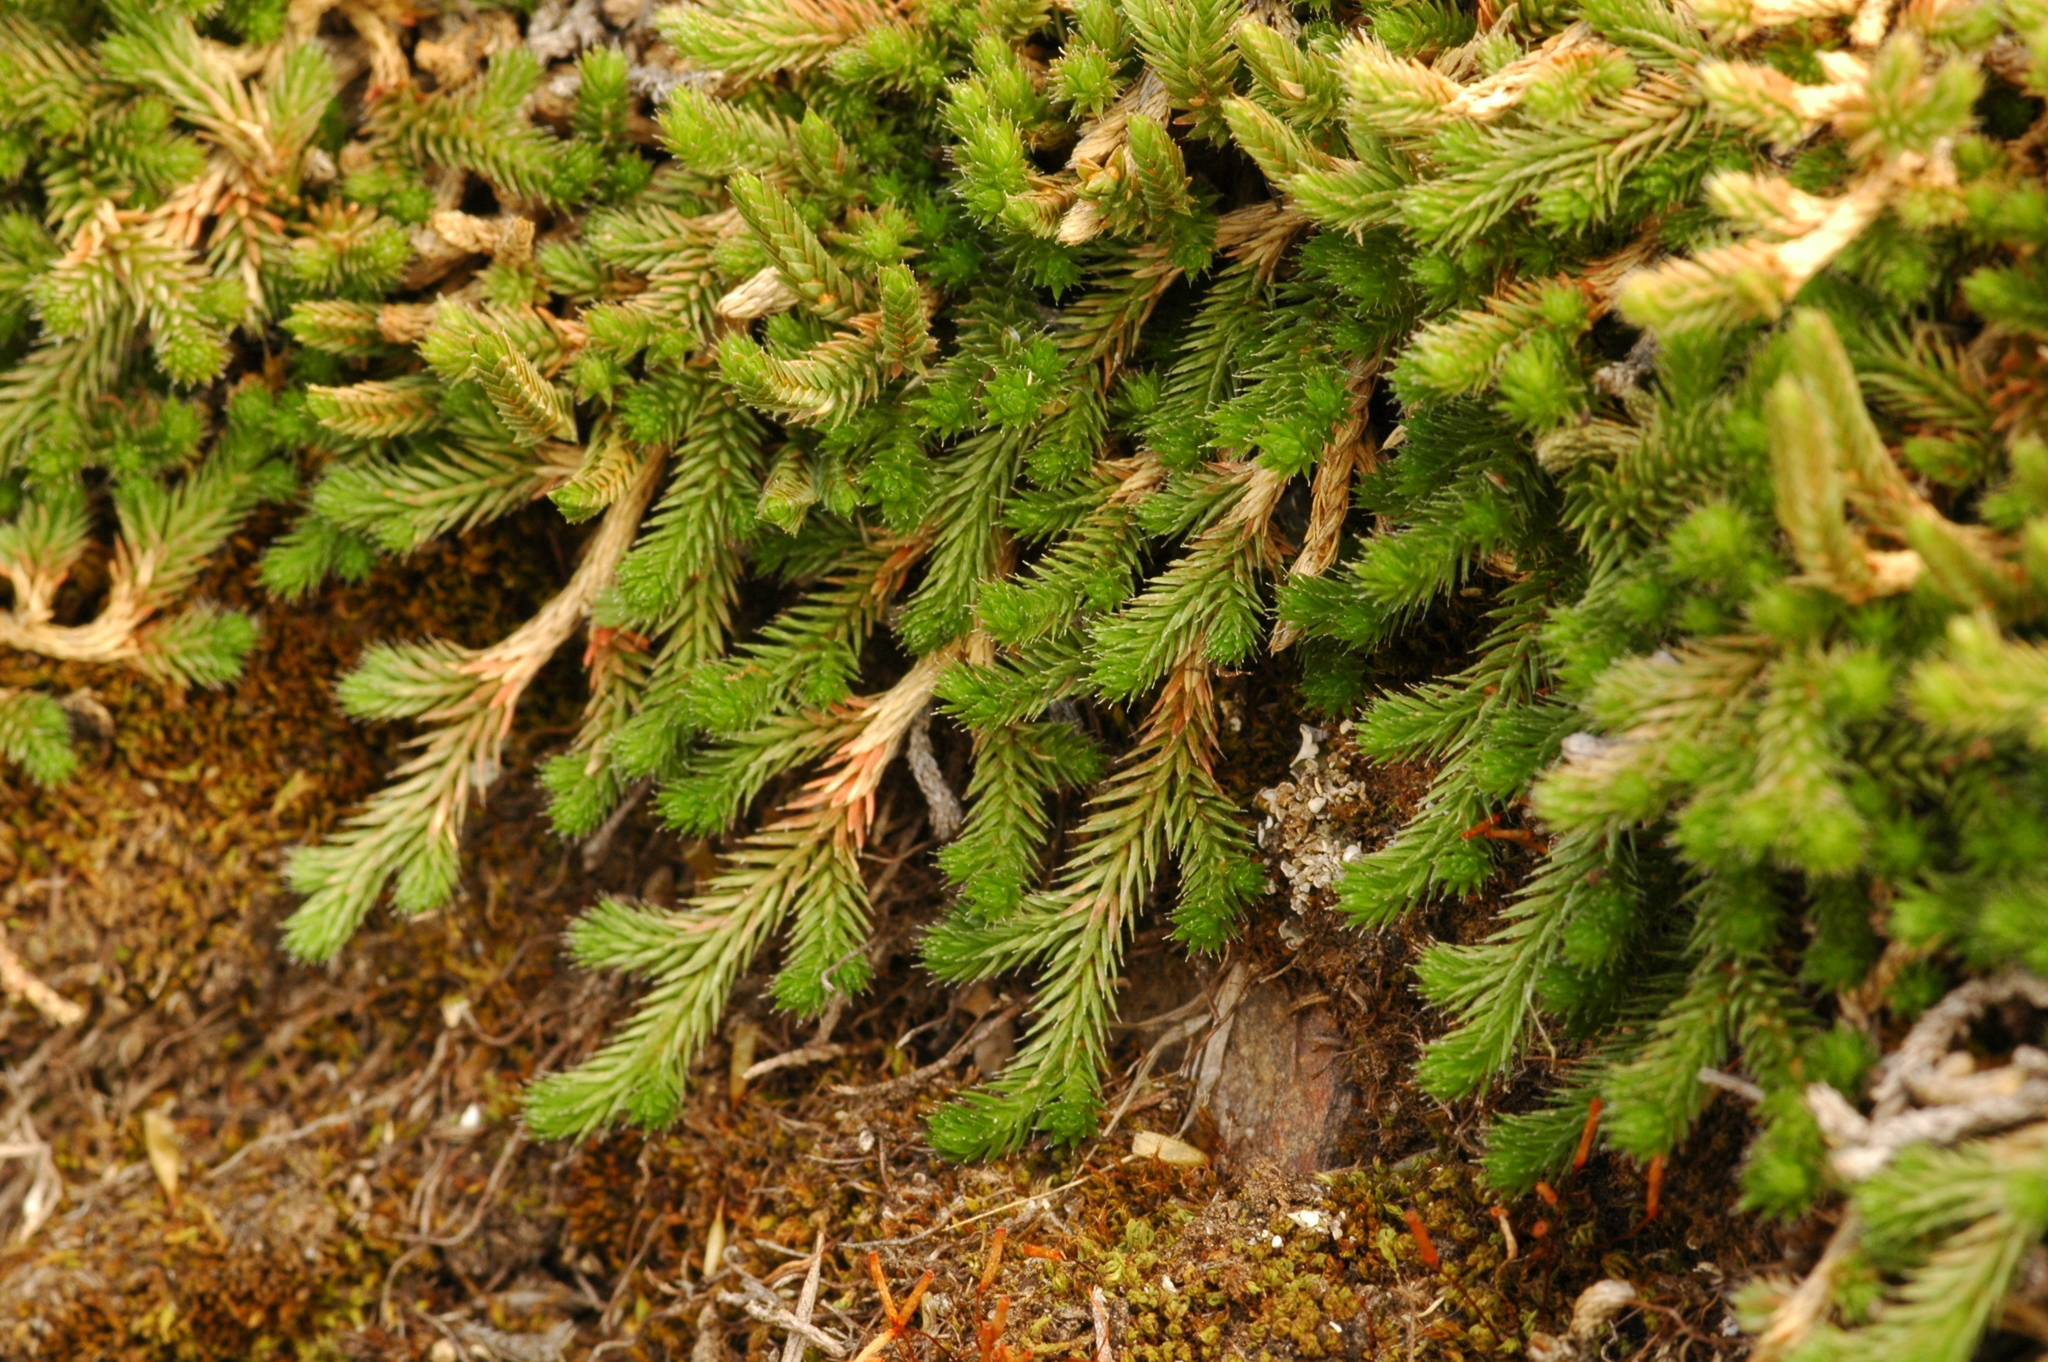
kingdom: Plantae
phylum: Tracheophyta
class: Lycopodiopsida
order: Selaginellales
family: Selaginellaceae
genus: Selaginella
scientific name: Selaginella wallacei
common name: Wallace's selaginella
